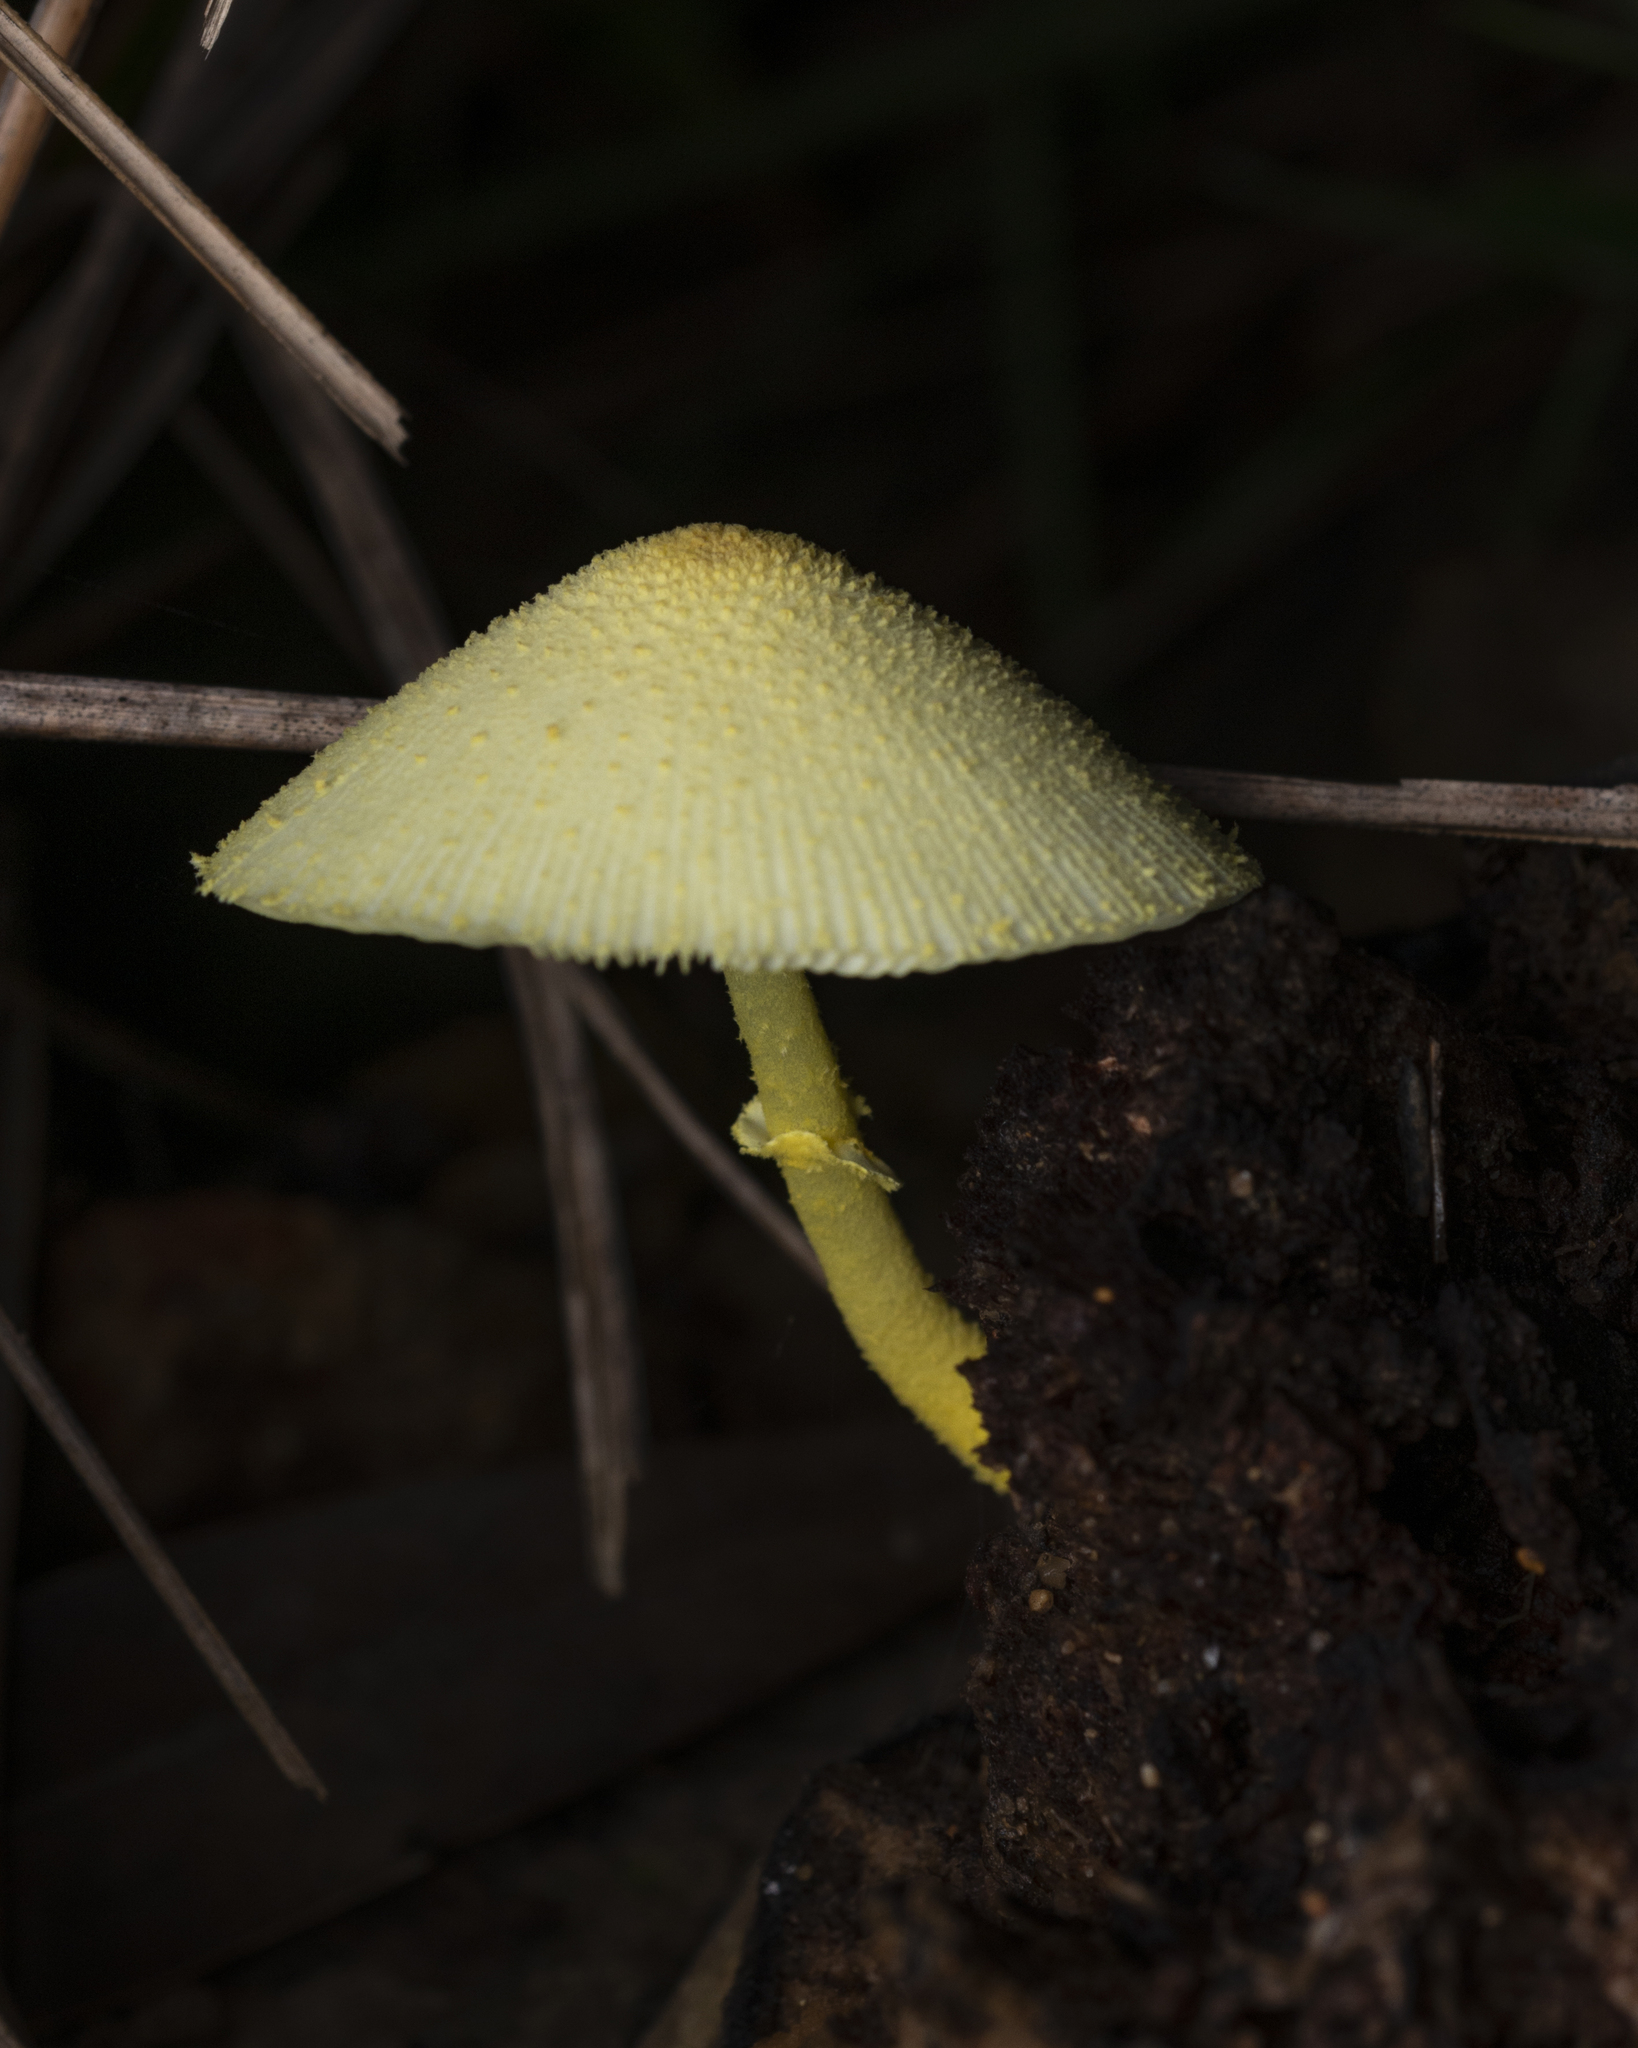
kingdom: Fungi
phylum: Basidiomycota
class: Agaricomycetes
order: Agaricales
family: Agaricaceae
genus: Leucocoprinus
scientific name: Leucocoprinus birnbaumii
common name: Plantpot dapperling
